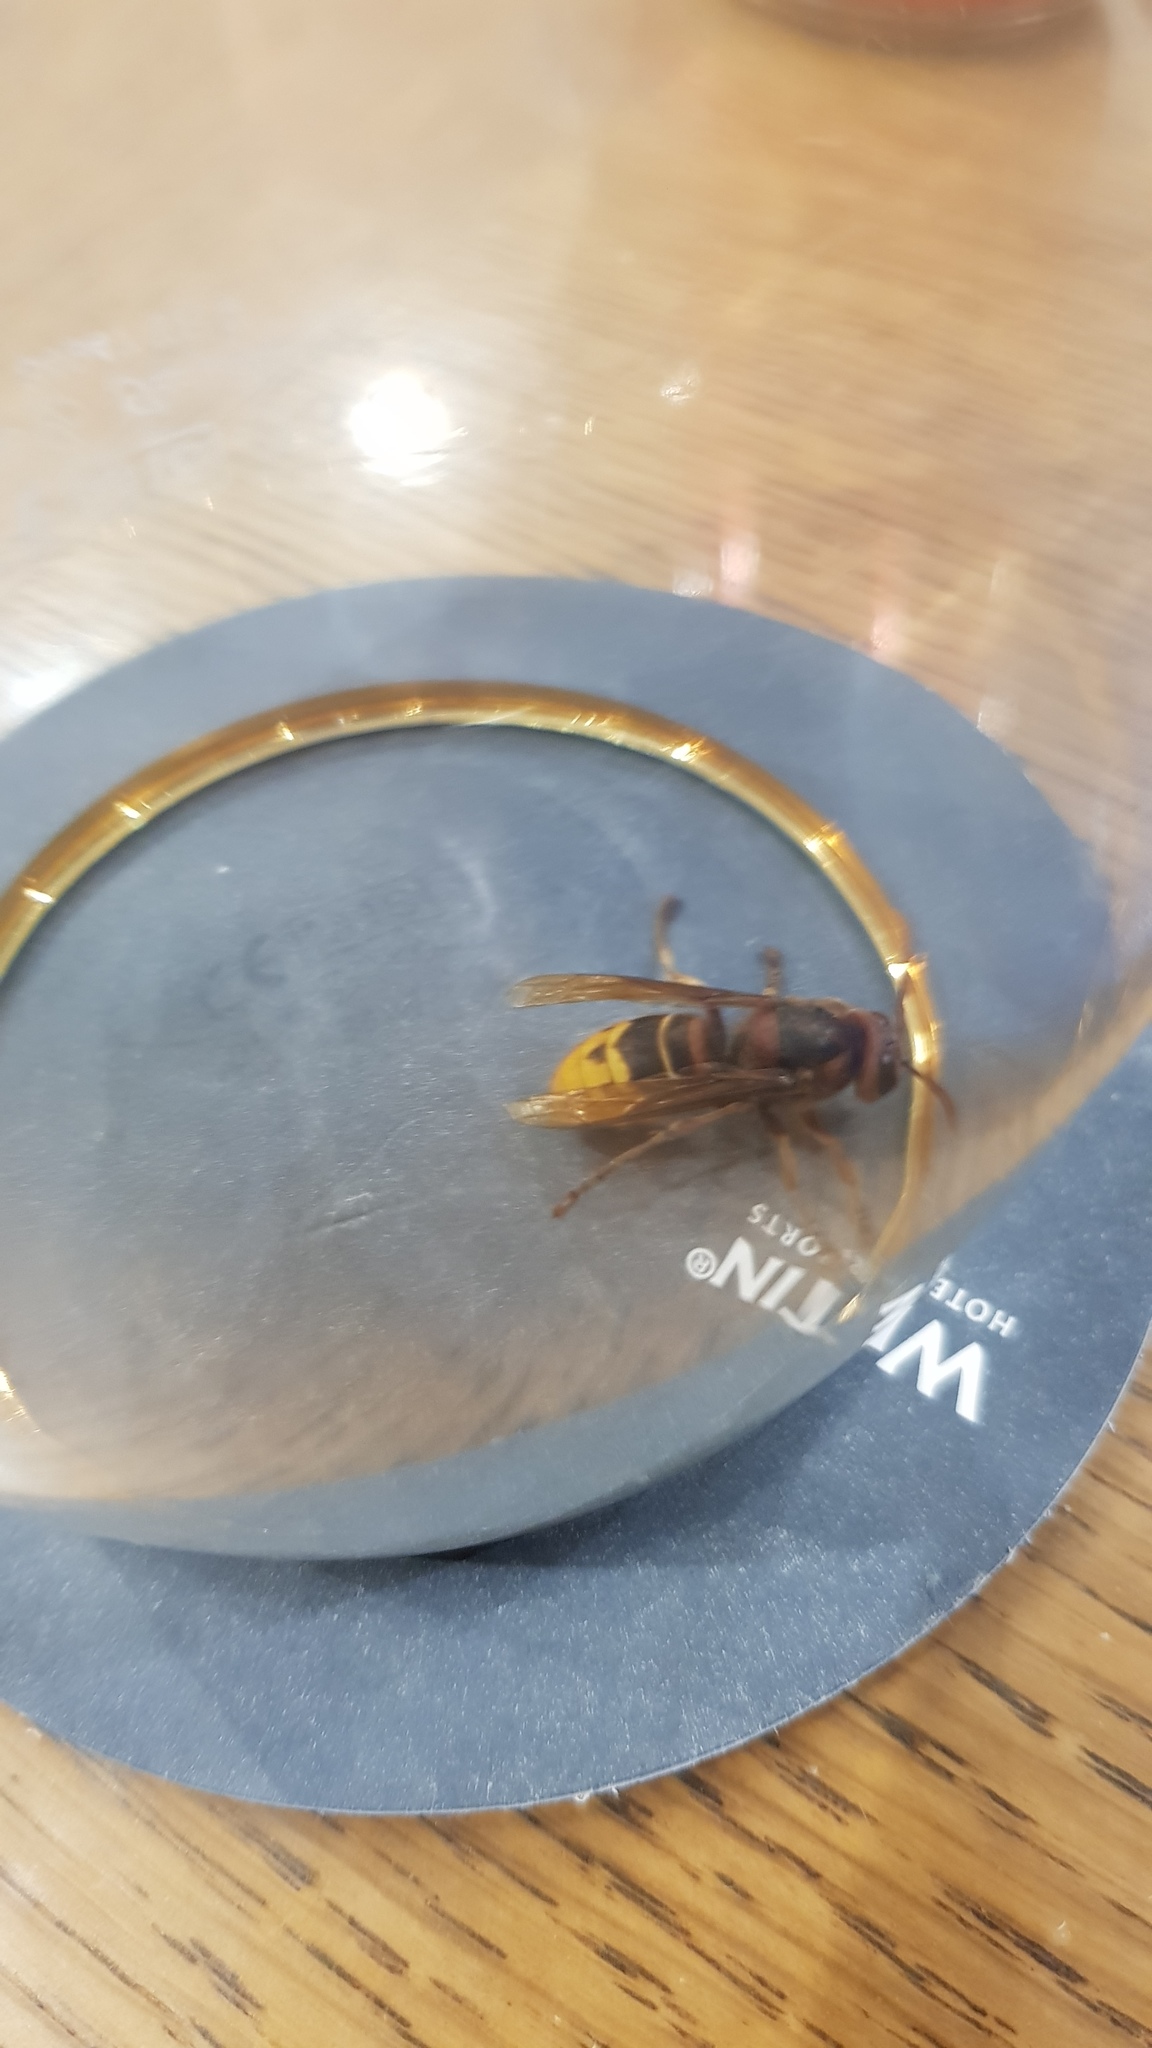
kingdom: Animalia
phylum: Arthropoda
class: Insecta
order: Hymenoptera
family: Vespidae
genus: Vespa
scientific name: Vespa crabro
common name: Hornet
